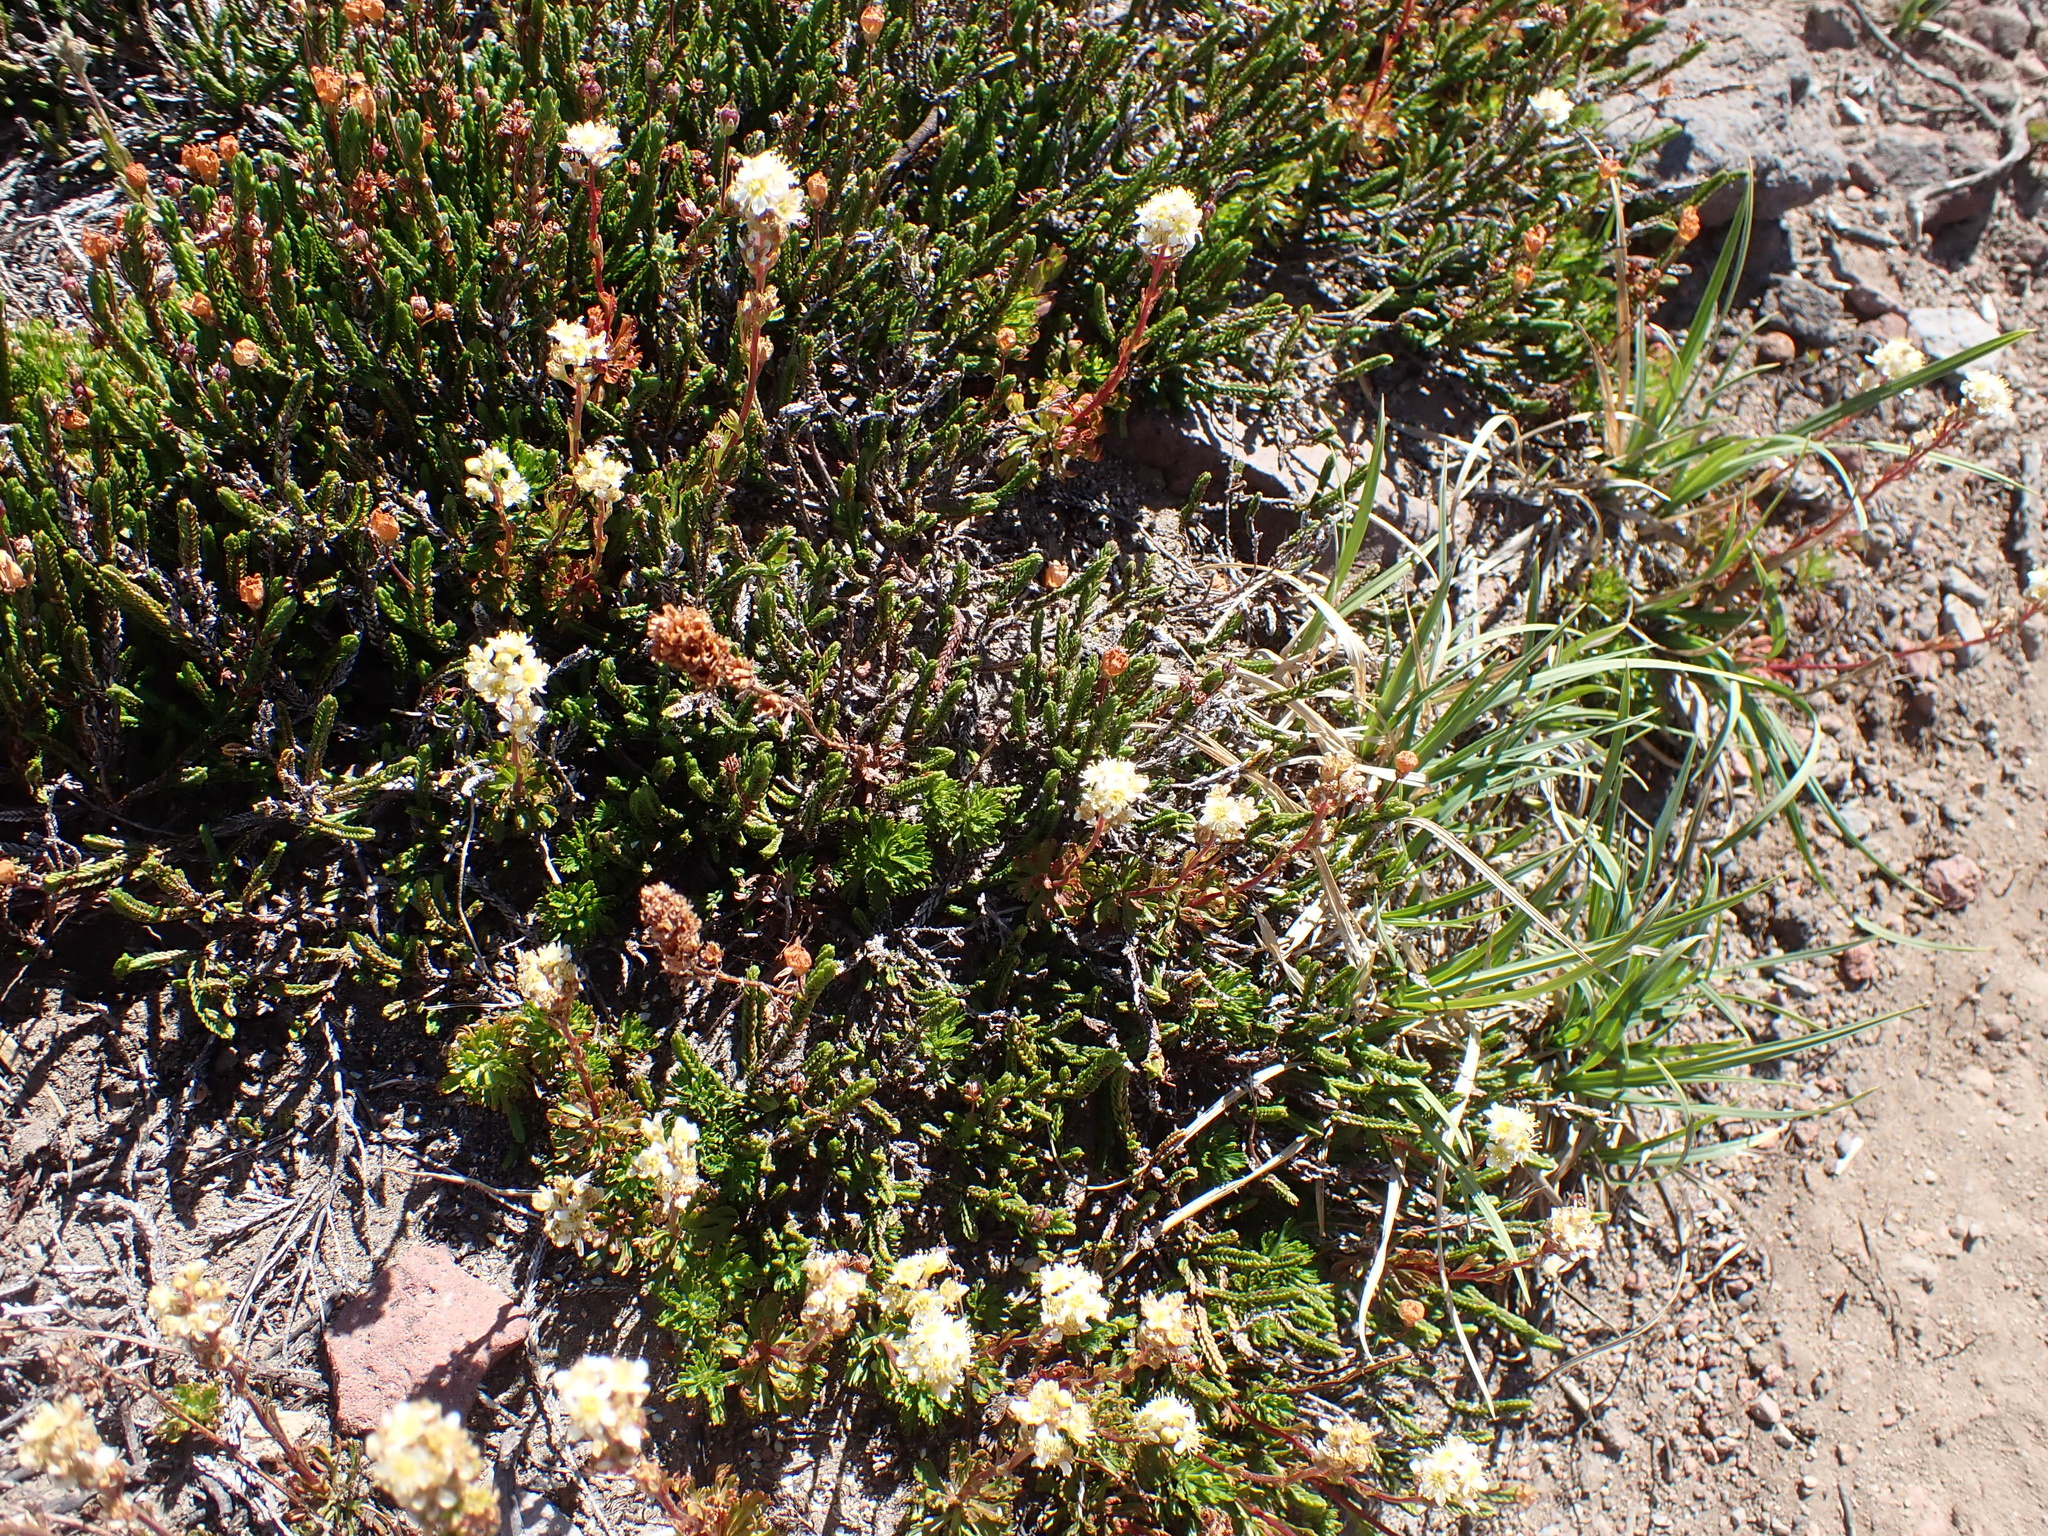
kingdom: Plantae
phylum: Tracheophyta
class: Magnoliopsida
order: Rosales
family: Rosaceae
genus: Luetkea
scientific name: Luetkea pectinata
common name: Partridgefoot
